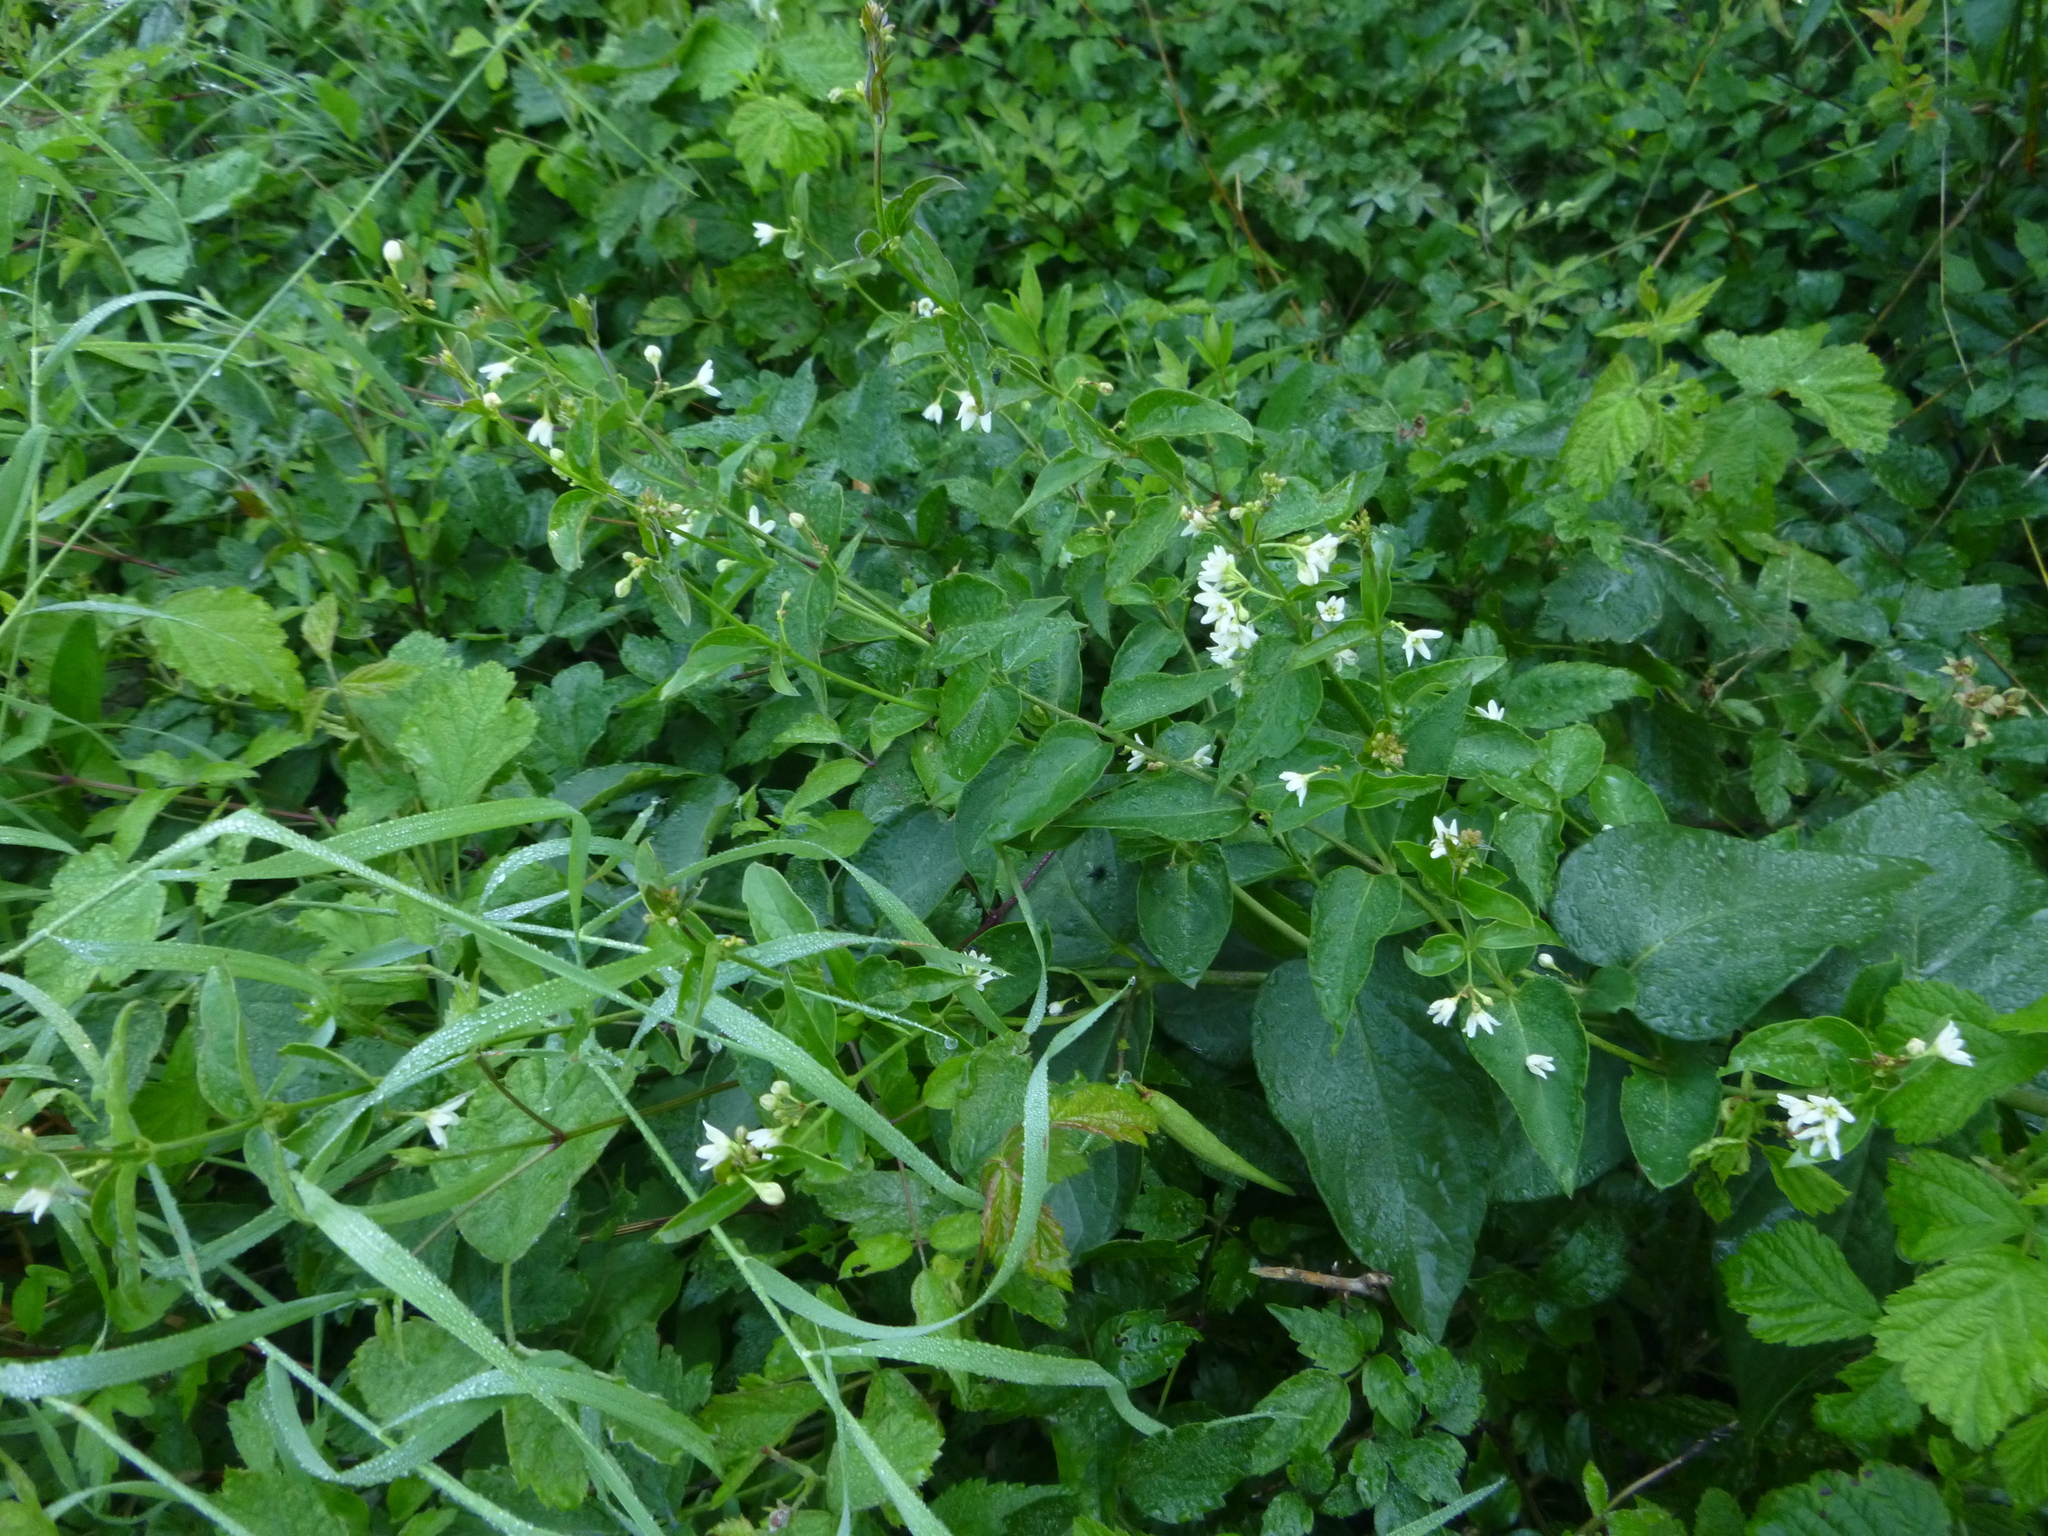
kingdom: Plantae
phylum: Tracheophyta
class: Magnoliopsida
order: Gentianales
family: Apocynaceae
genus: Vincetoxicum
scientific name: Vincetoxicum hirundinaria
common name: White swallowwort
